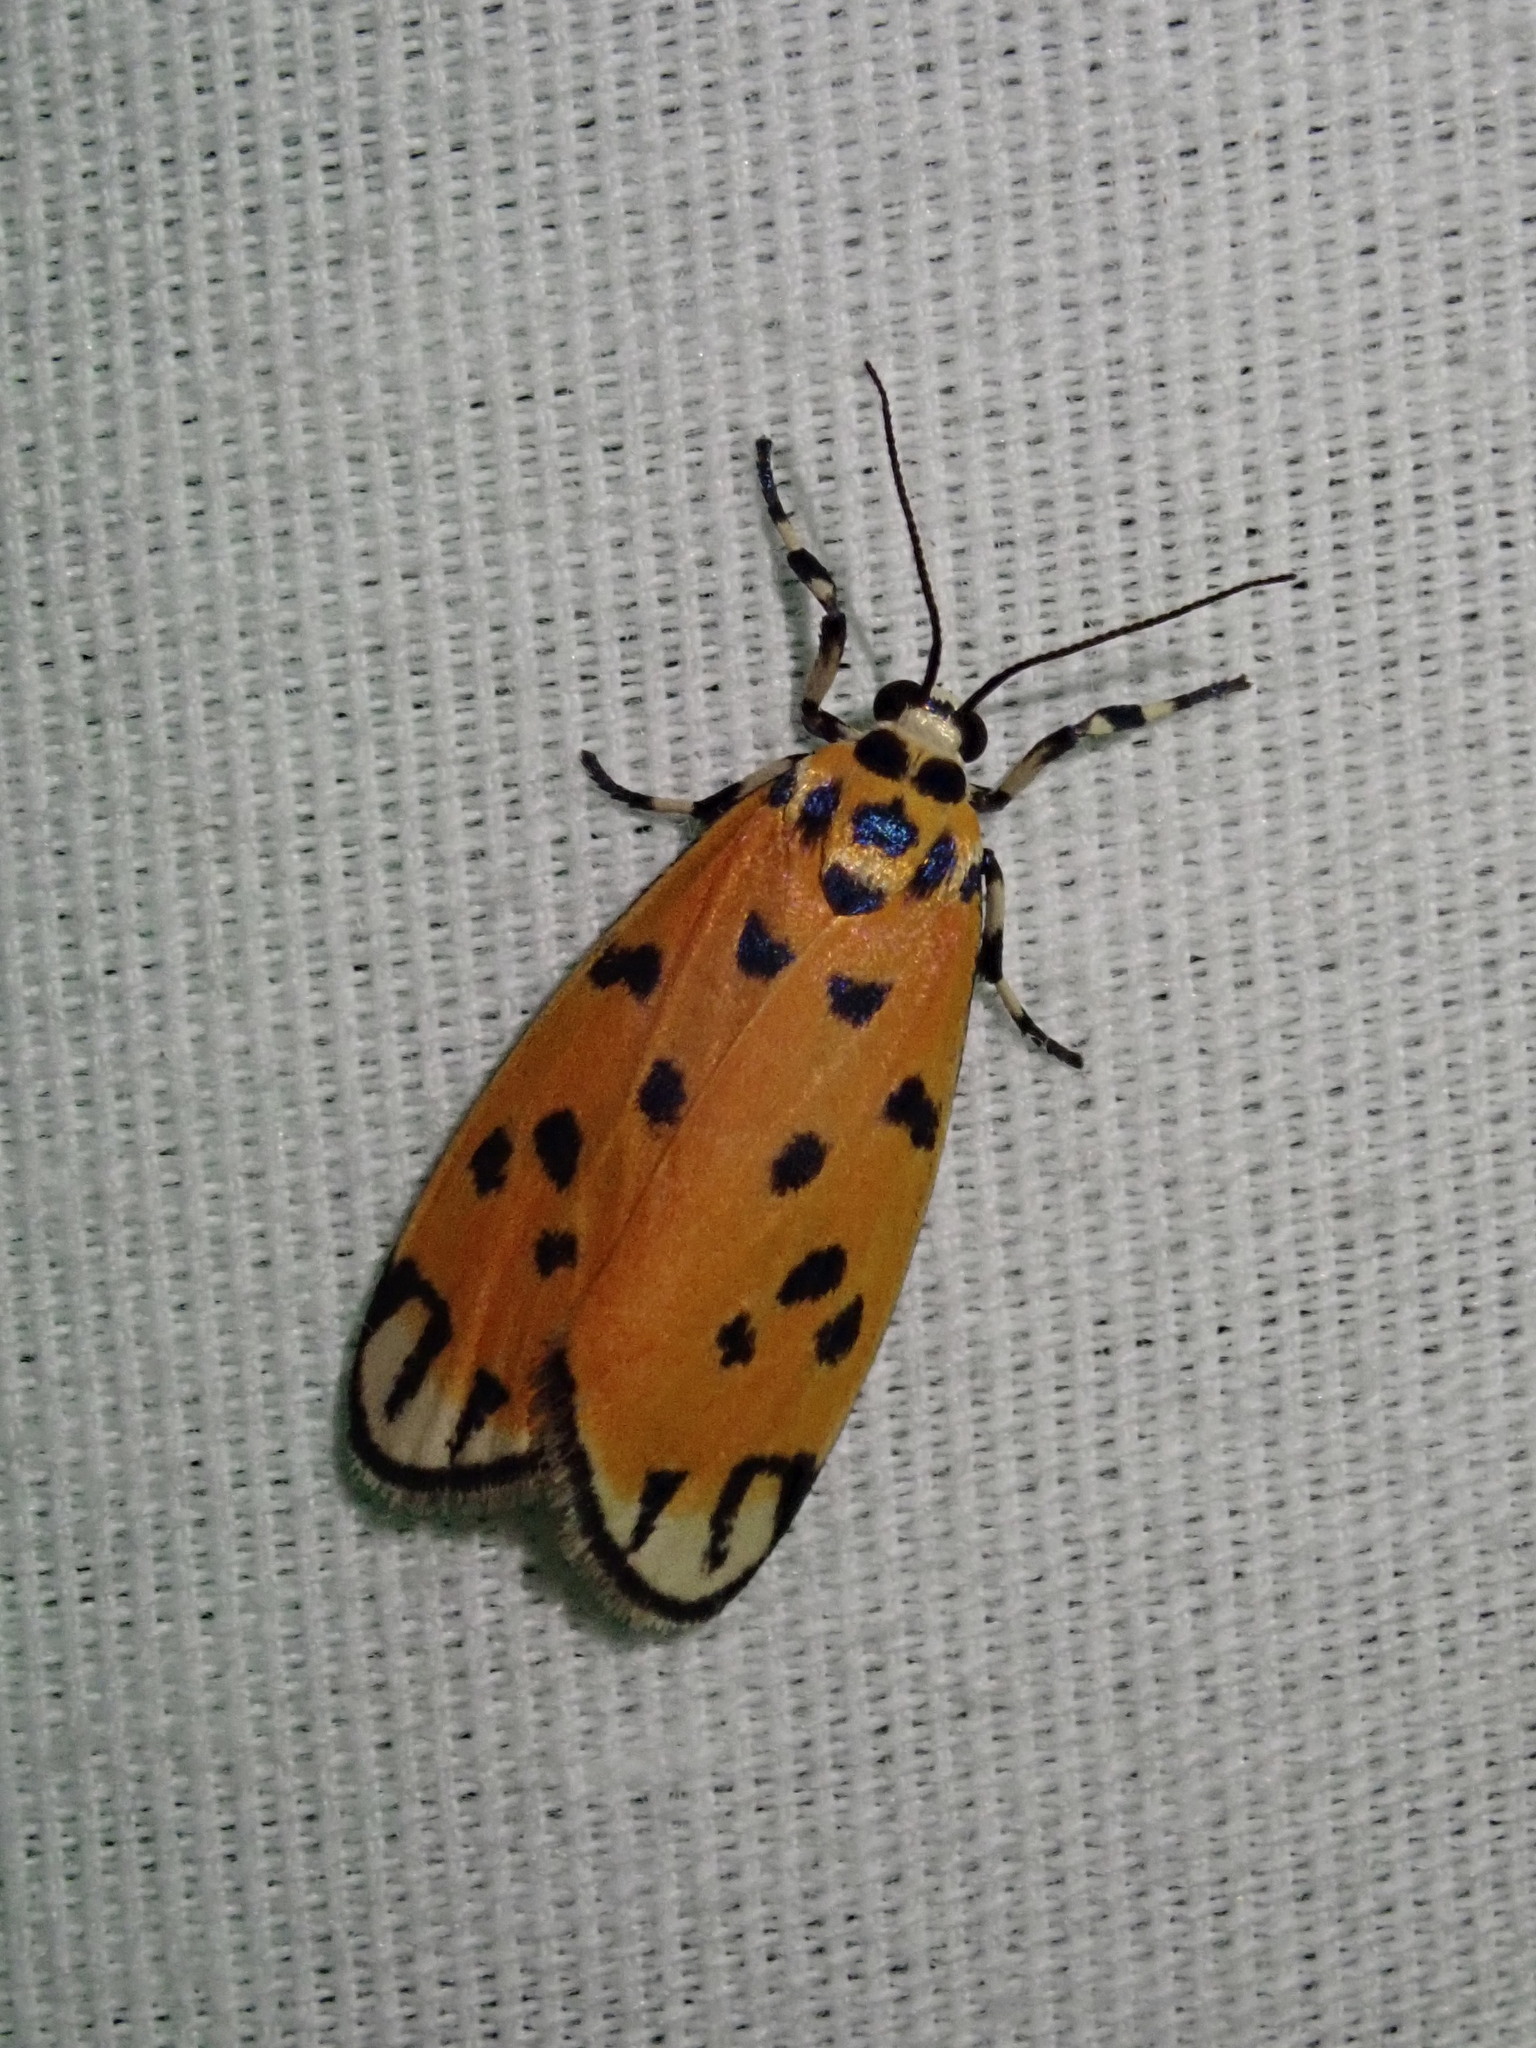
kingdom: Animalia
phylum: Arthropoda
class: Insecta
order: Lepidoptera
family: Erebidae
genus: Clemensia
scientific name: Clemensia donuca
